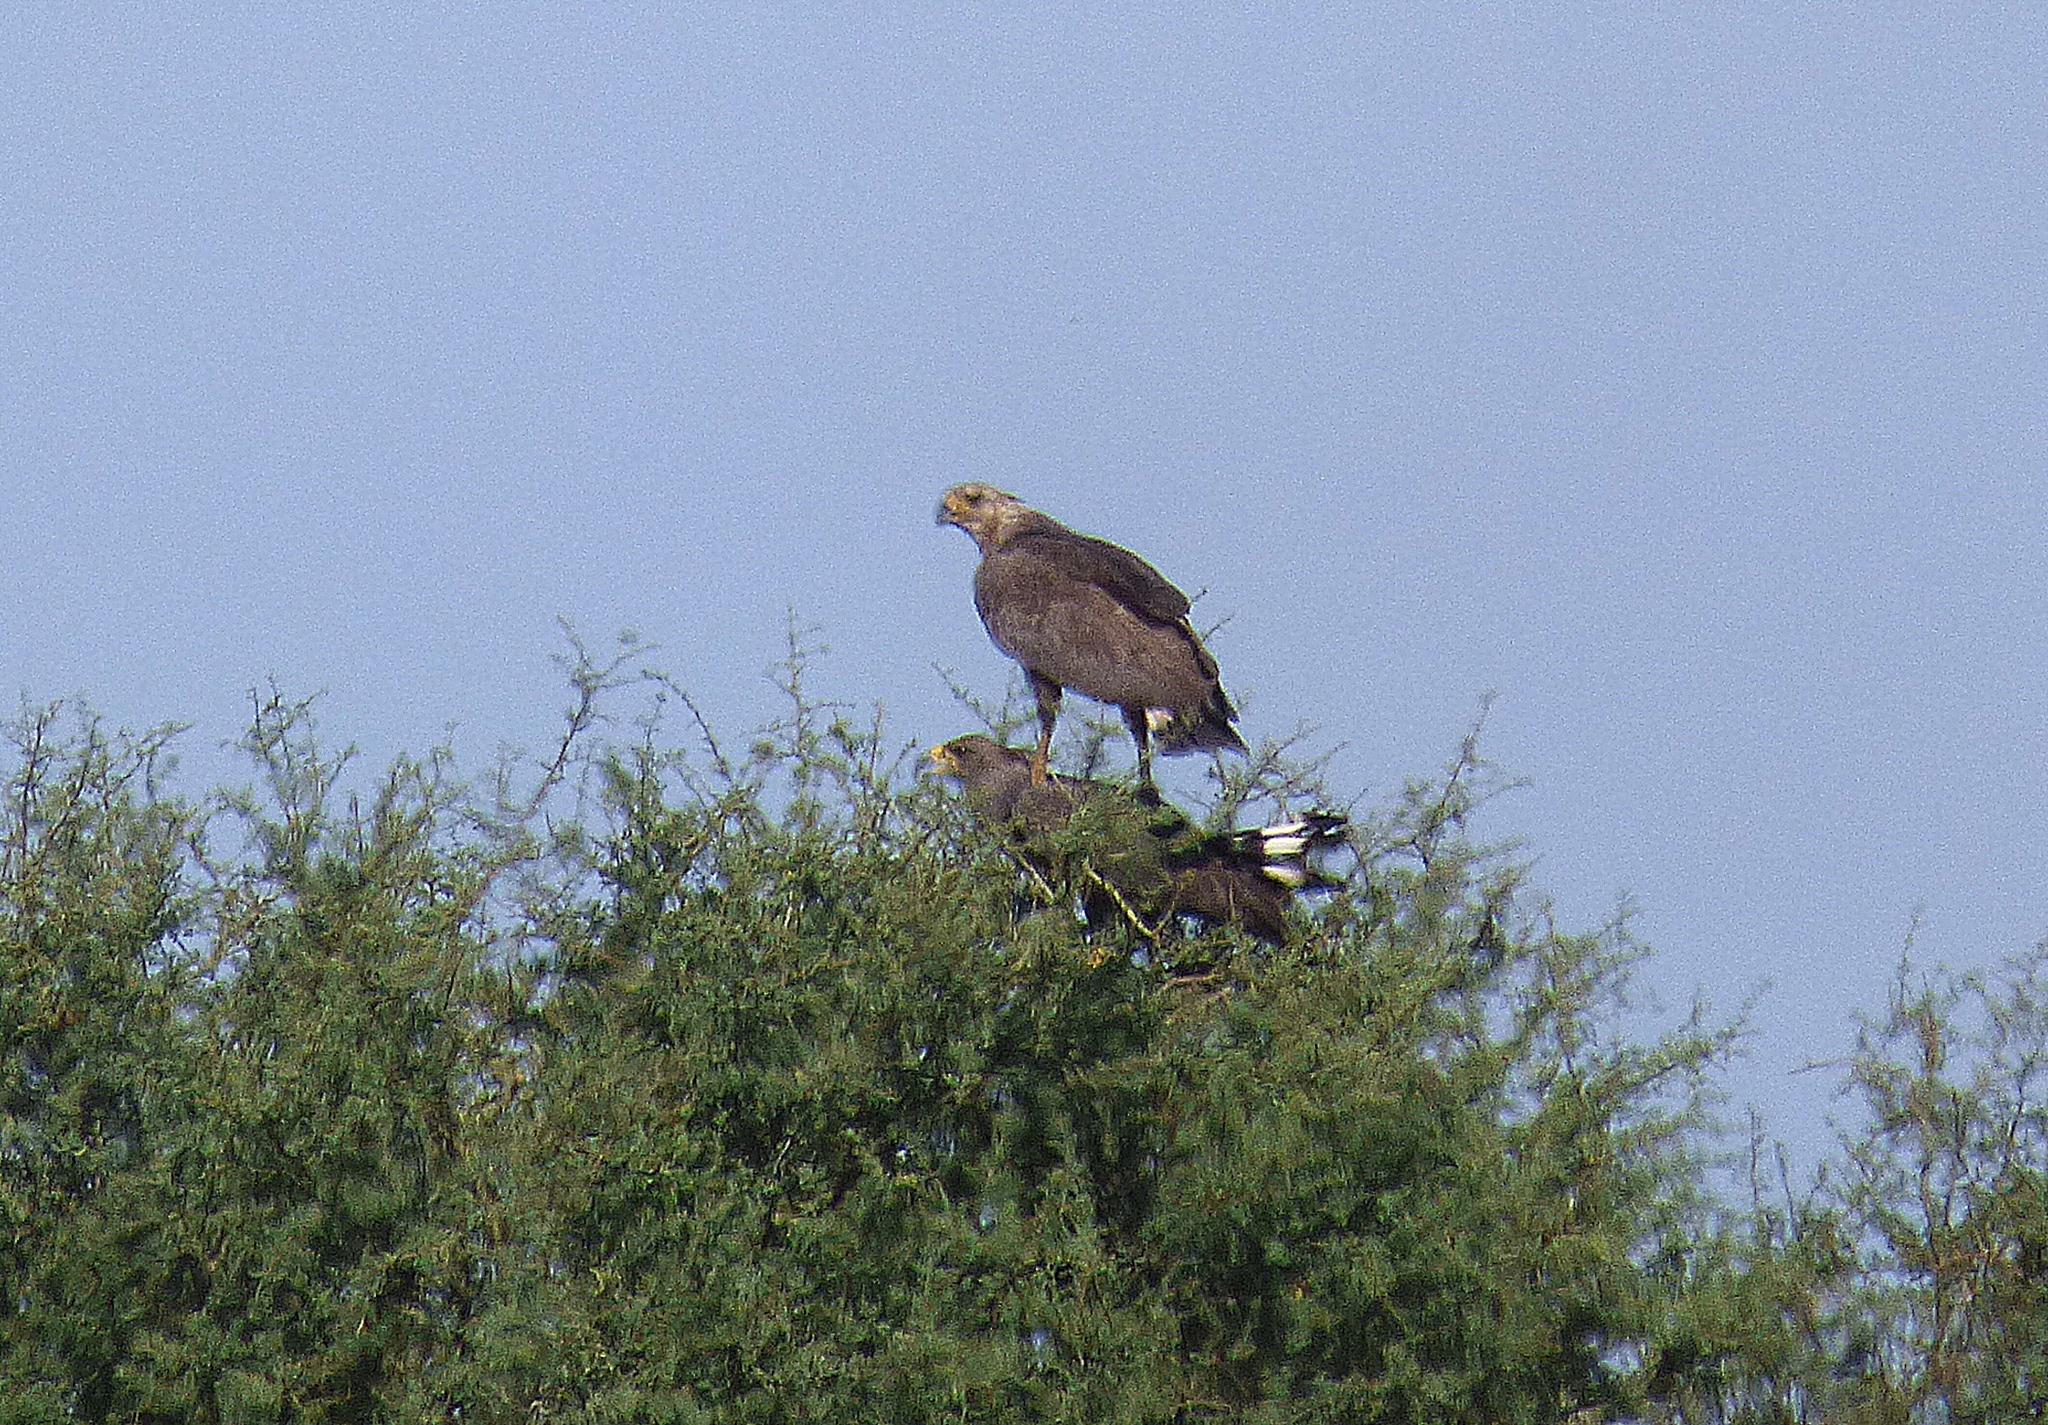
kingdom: Animalia
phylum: Chordata
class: Aves
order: Accipitriformes
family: Accipitridae
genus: Harpyhaliaetus
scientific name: Harpyhaliaetus coronatus
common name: Crowned solitary eagle
